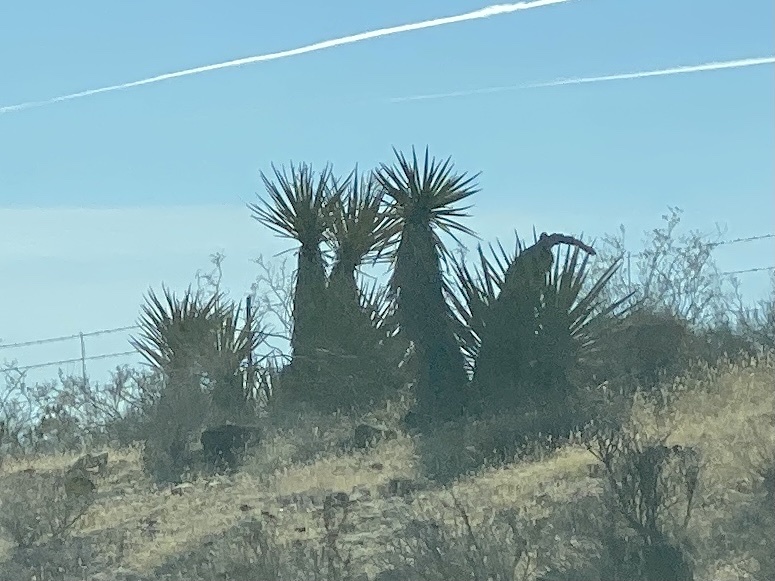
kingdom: Plantae
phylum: Tracheophyta
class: Liliopsida
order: Asparagales
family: Asparagaceae
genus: Yucca
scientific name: Yucca schidigera
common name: Mojave yucca
